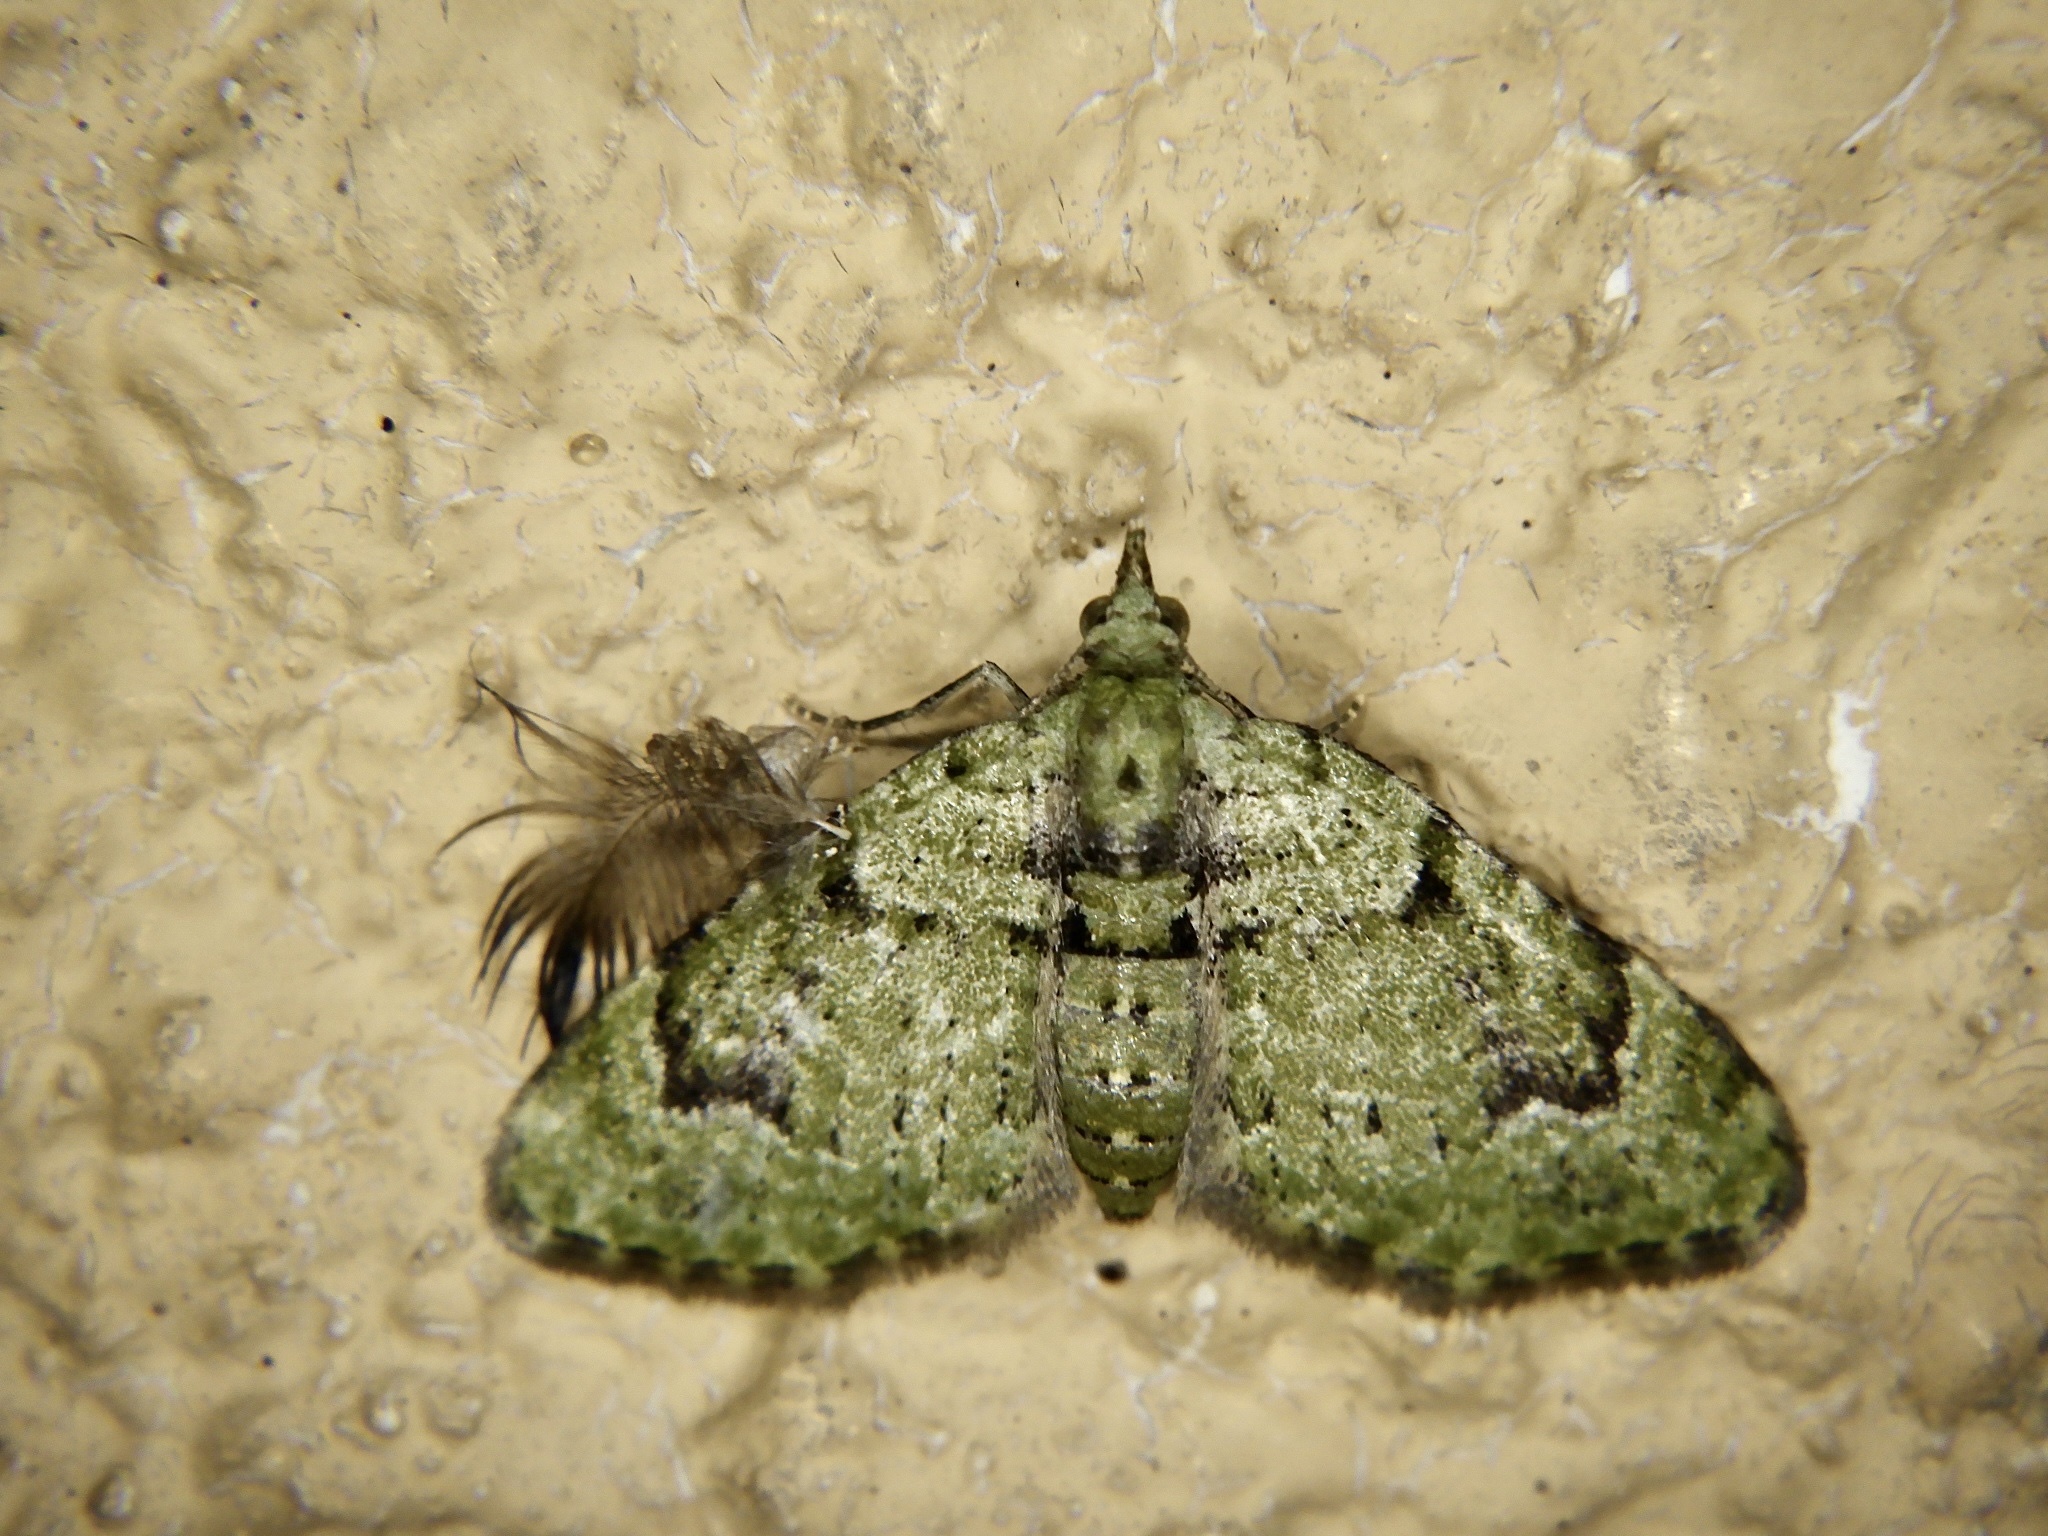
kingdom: Animalia
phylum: Arthropoda
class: Insecta
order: Lepidoptera
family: Geometridae
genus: Chloroclystis
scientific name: Chloroclystis v-ata
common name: V-pug
